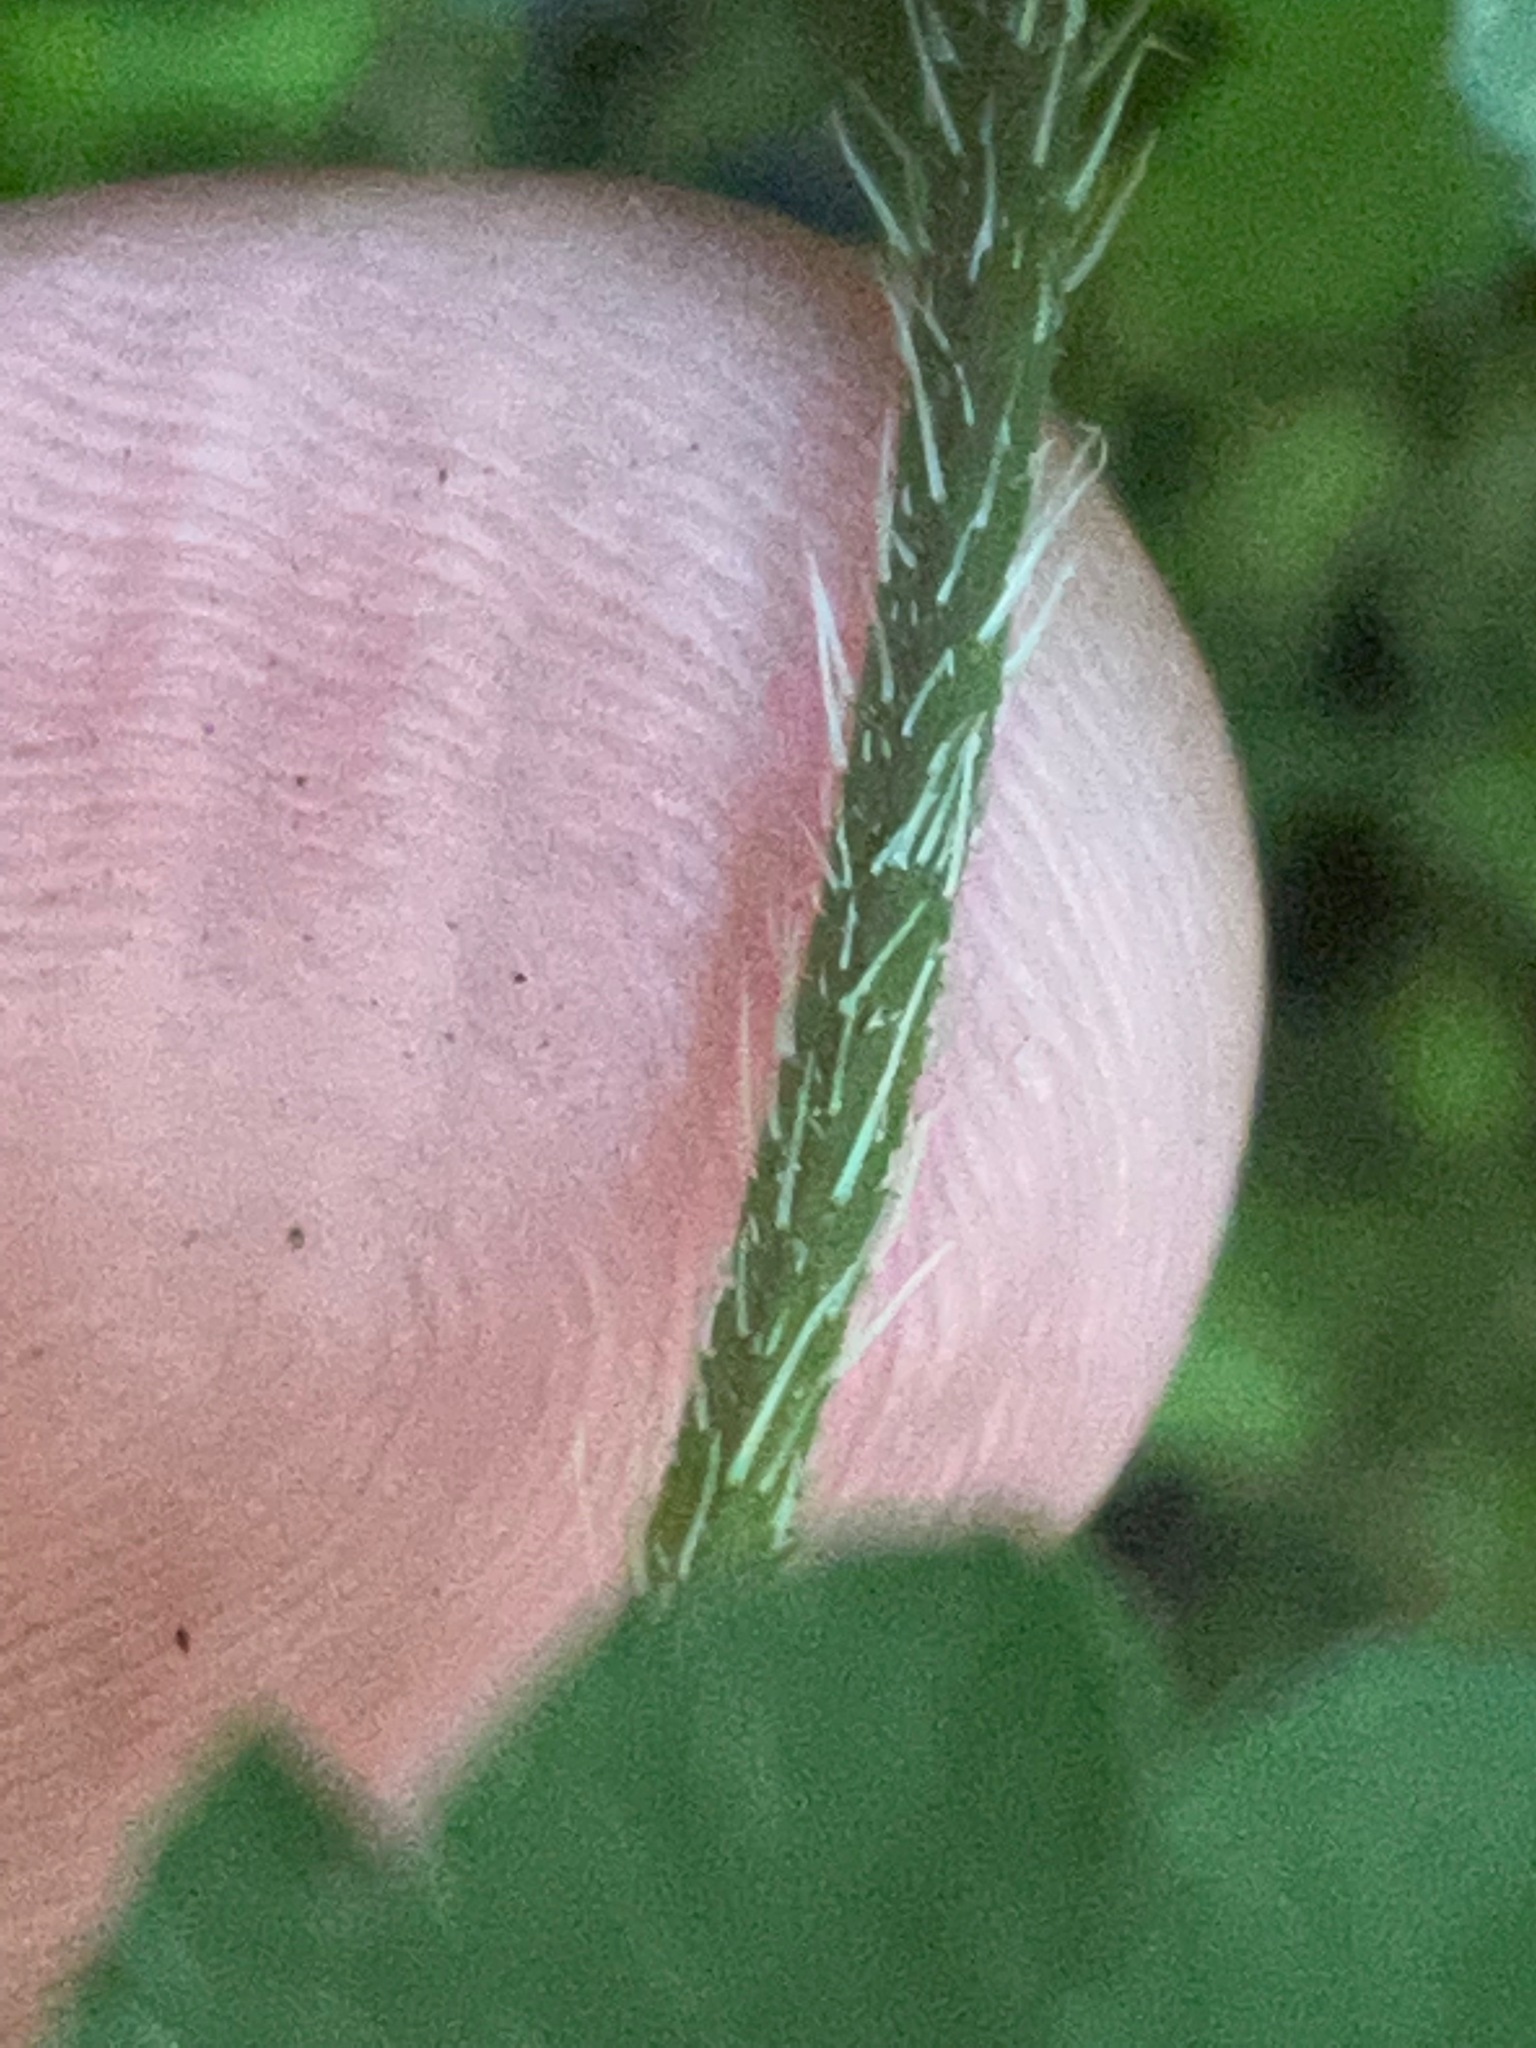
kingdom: Plantae
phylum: Tracheophyta
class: Magnoliopsida
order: Saxifragales
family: Saxifragaceae
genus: Mitella
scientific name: Mitella diphylla
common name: Coolwort
